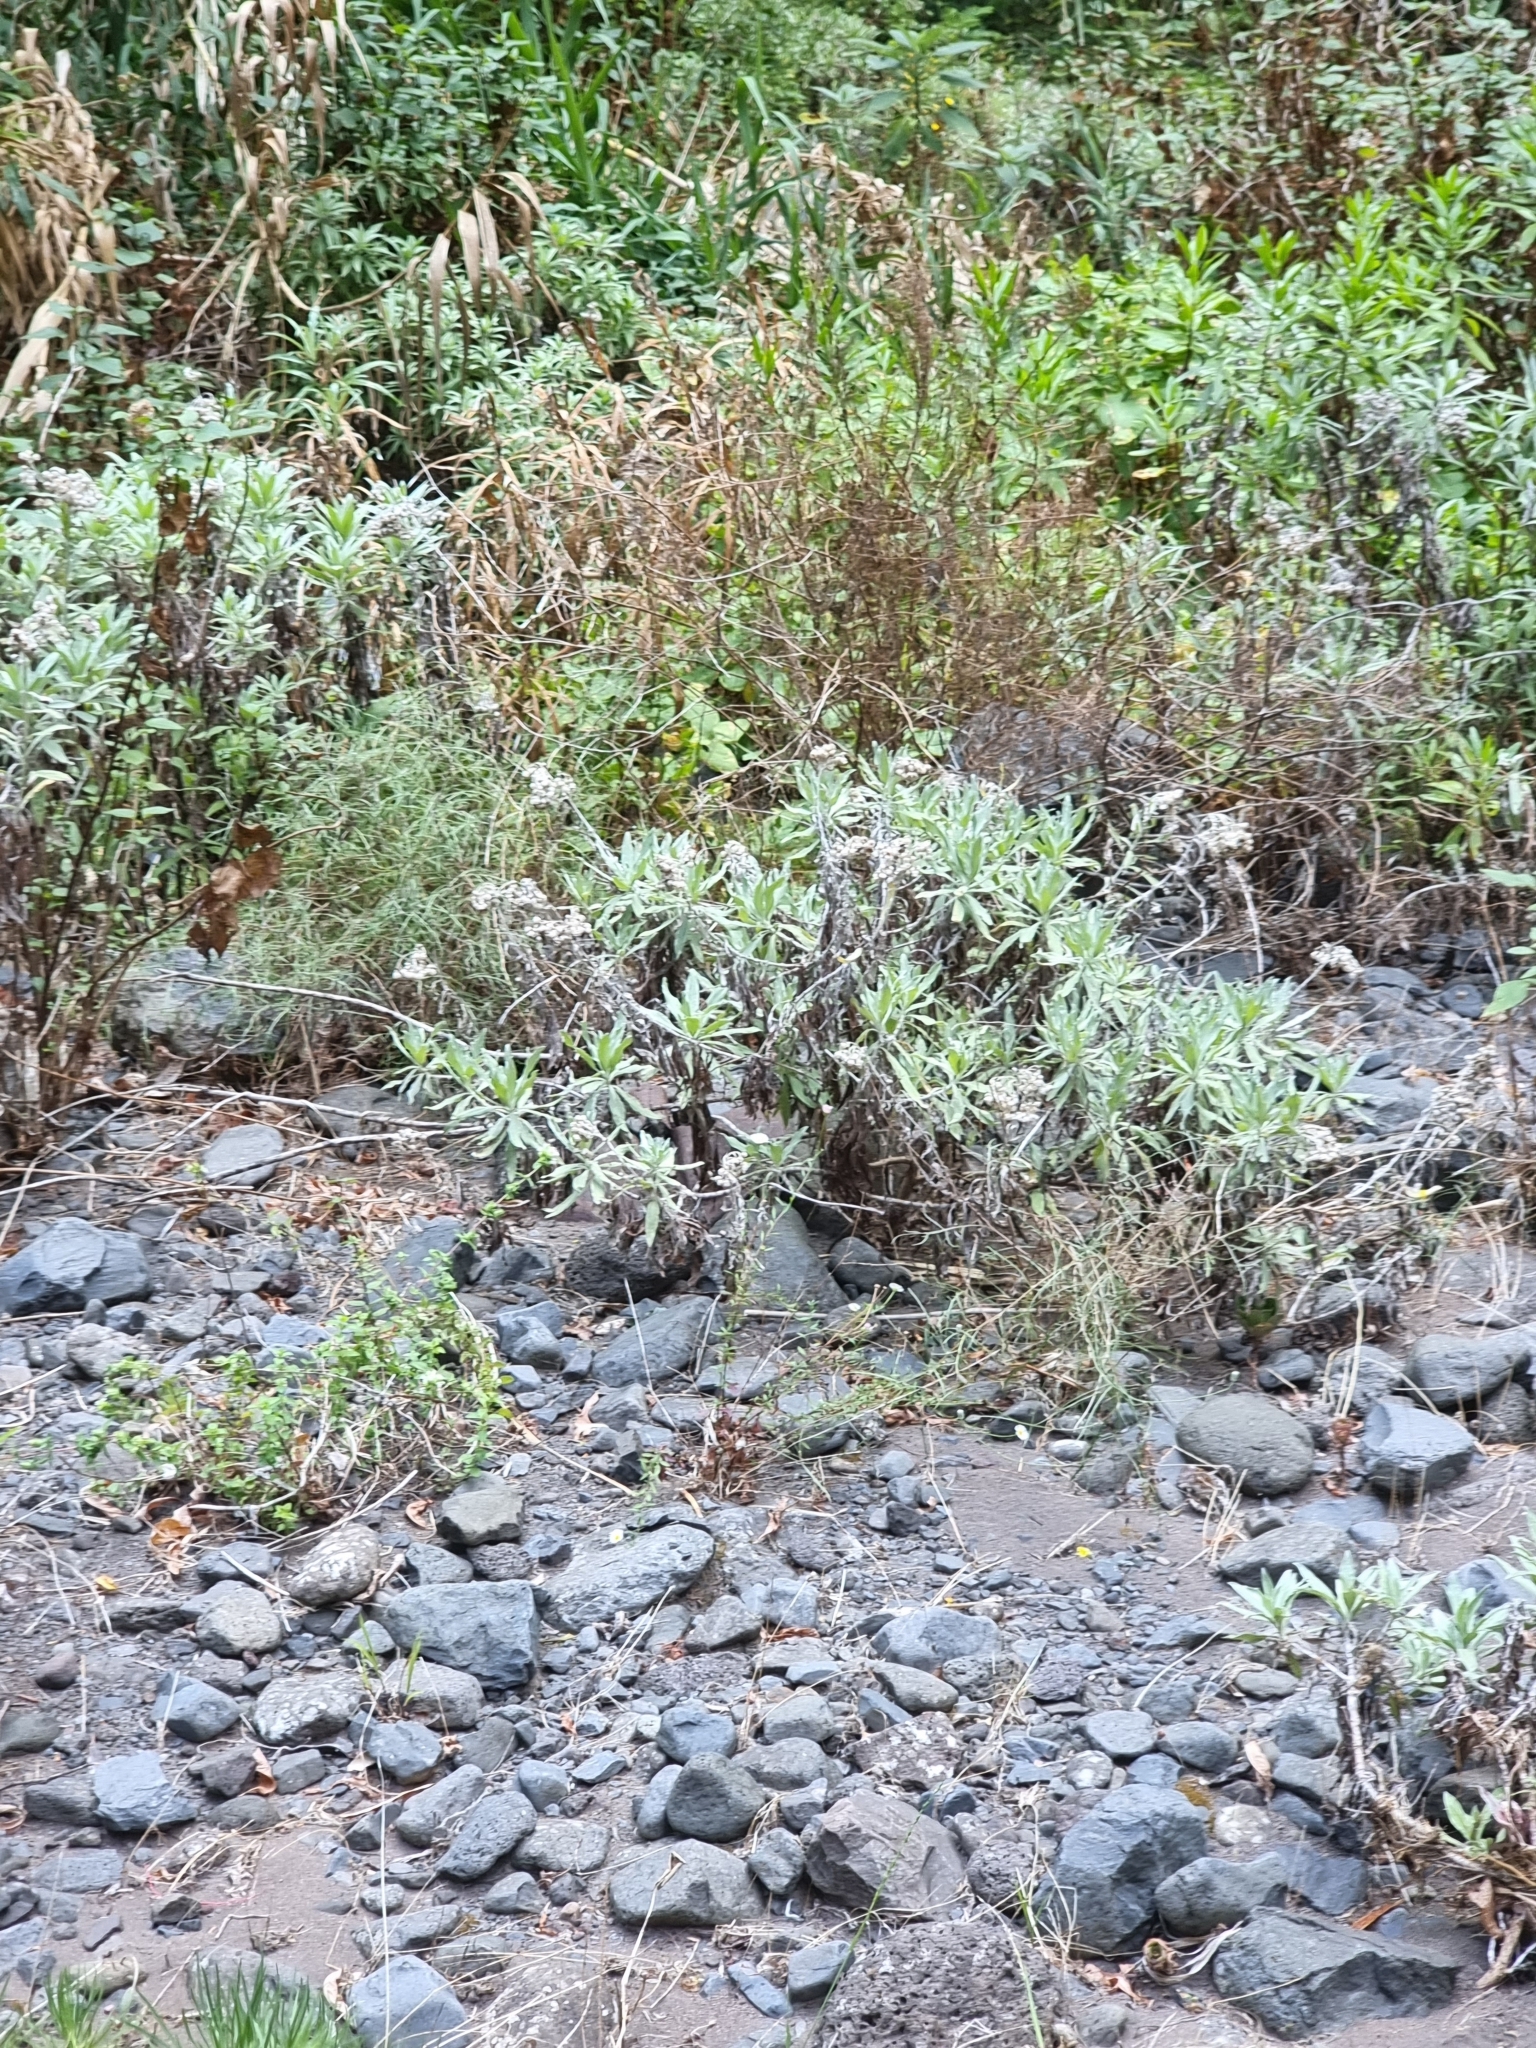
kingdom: Plantae
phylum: Tracheophyta
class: Magnoliopsida
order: Asterales
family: Asteraceae
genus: Helichrysum
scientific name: Helichrysum melaleucum
